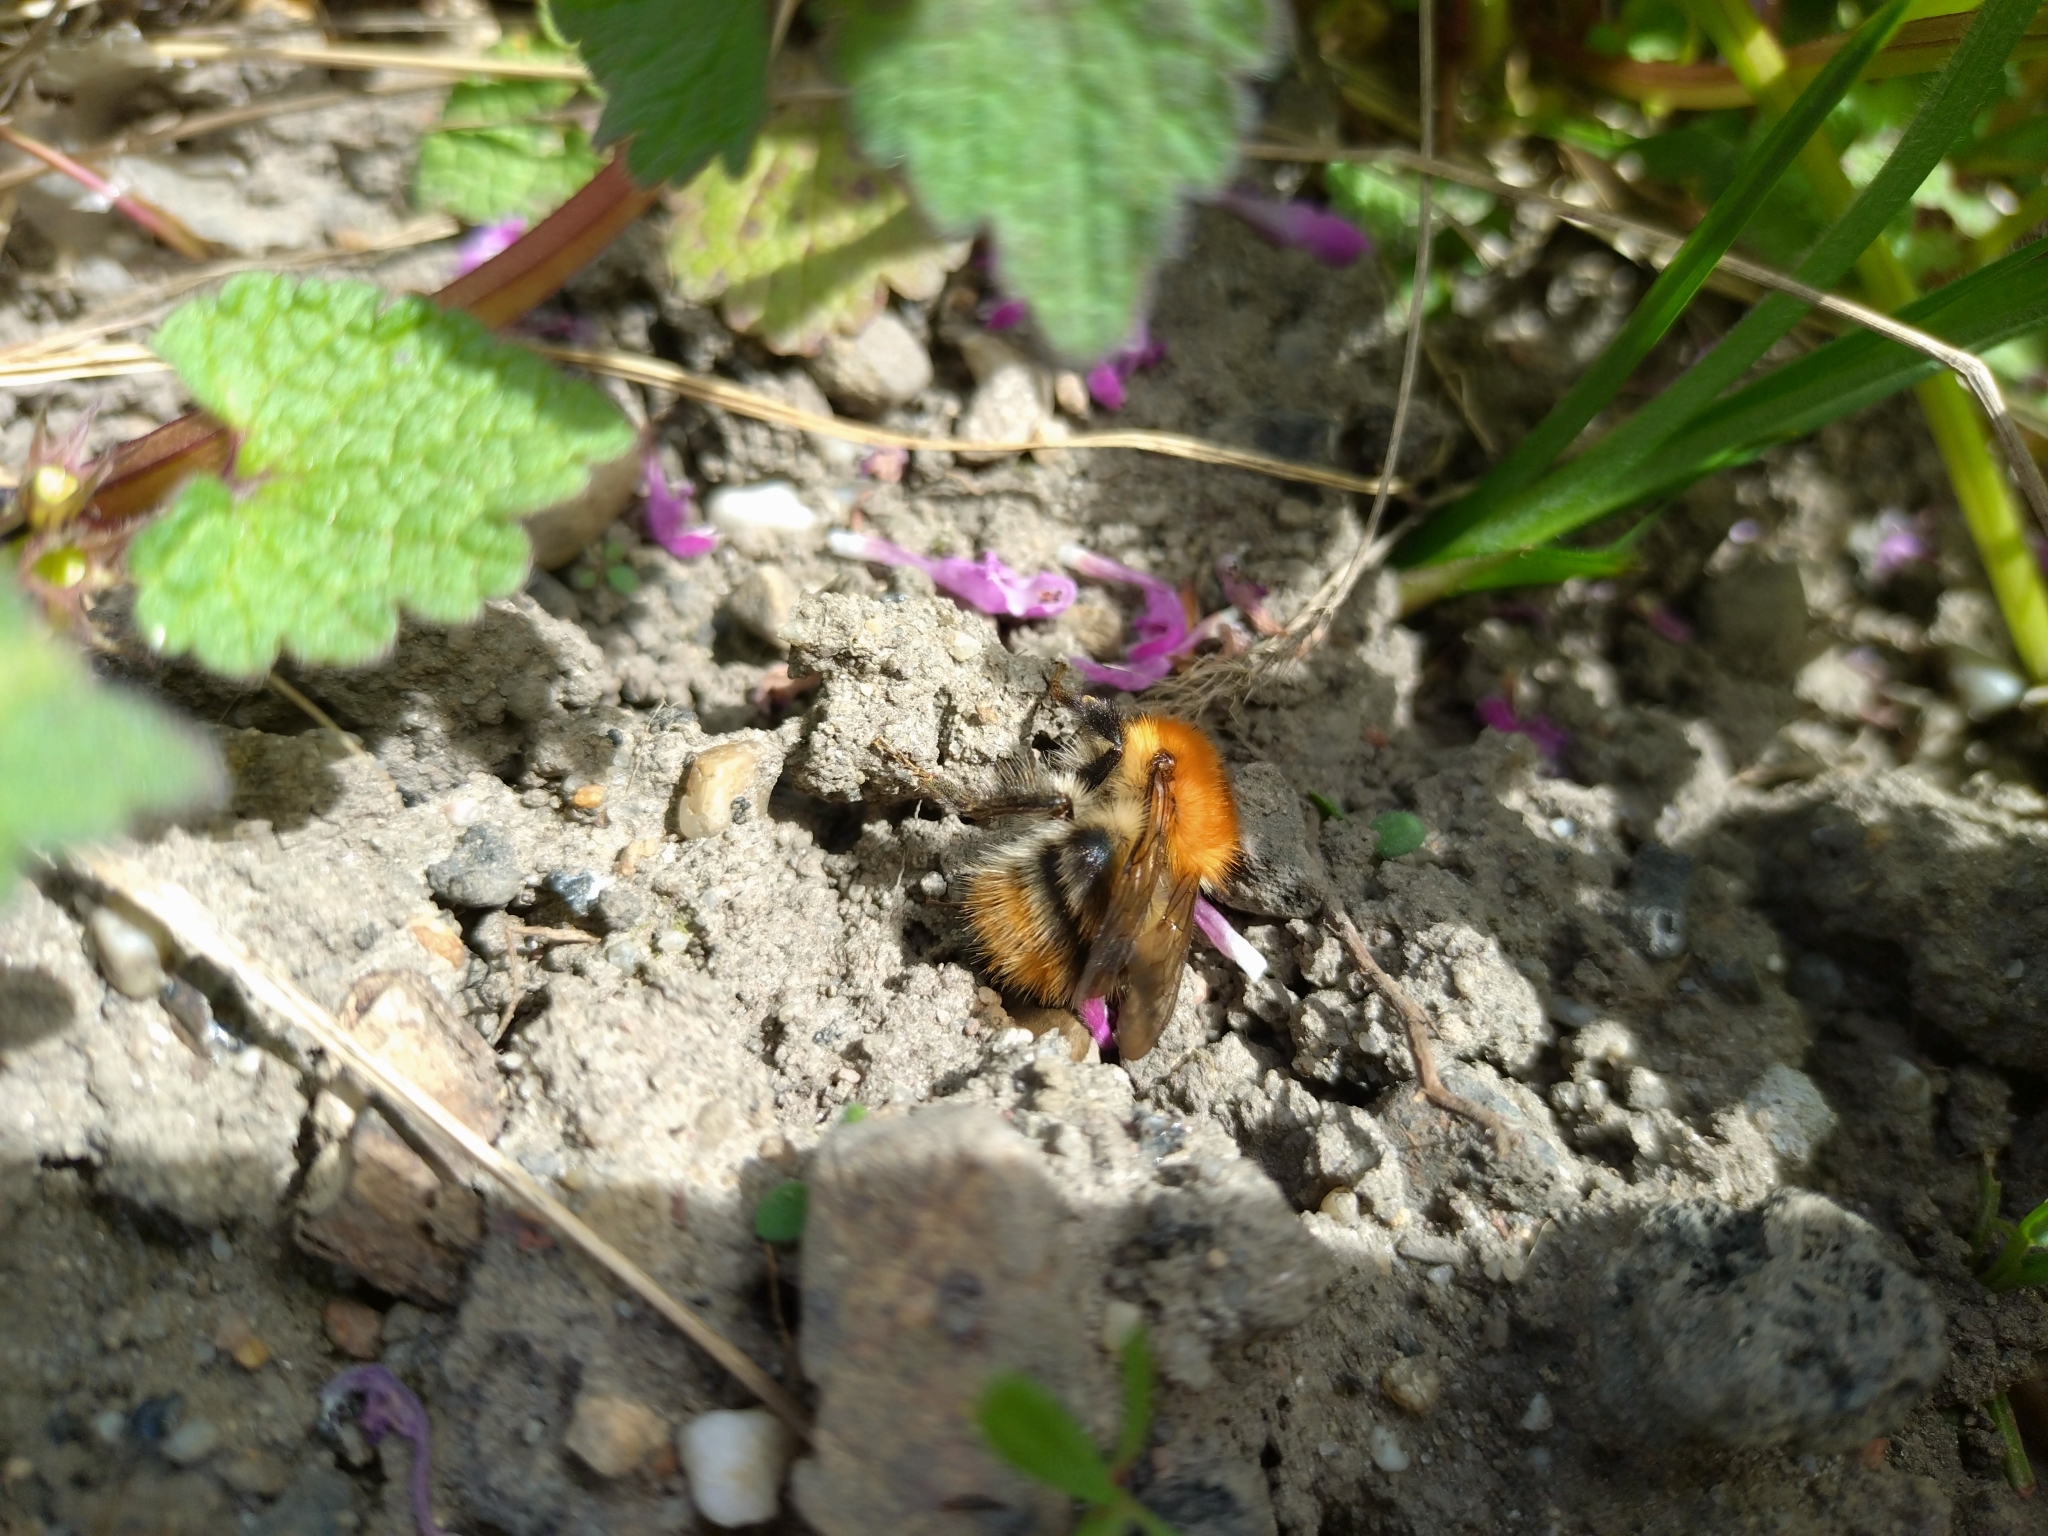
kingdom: Animalia
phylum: Arthropoda
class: Insecta
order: Hymenoptera
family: Apidae
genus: Bombus
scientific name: Bombus pascuorum
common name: Common carder bee
